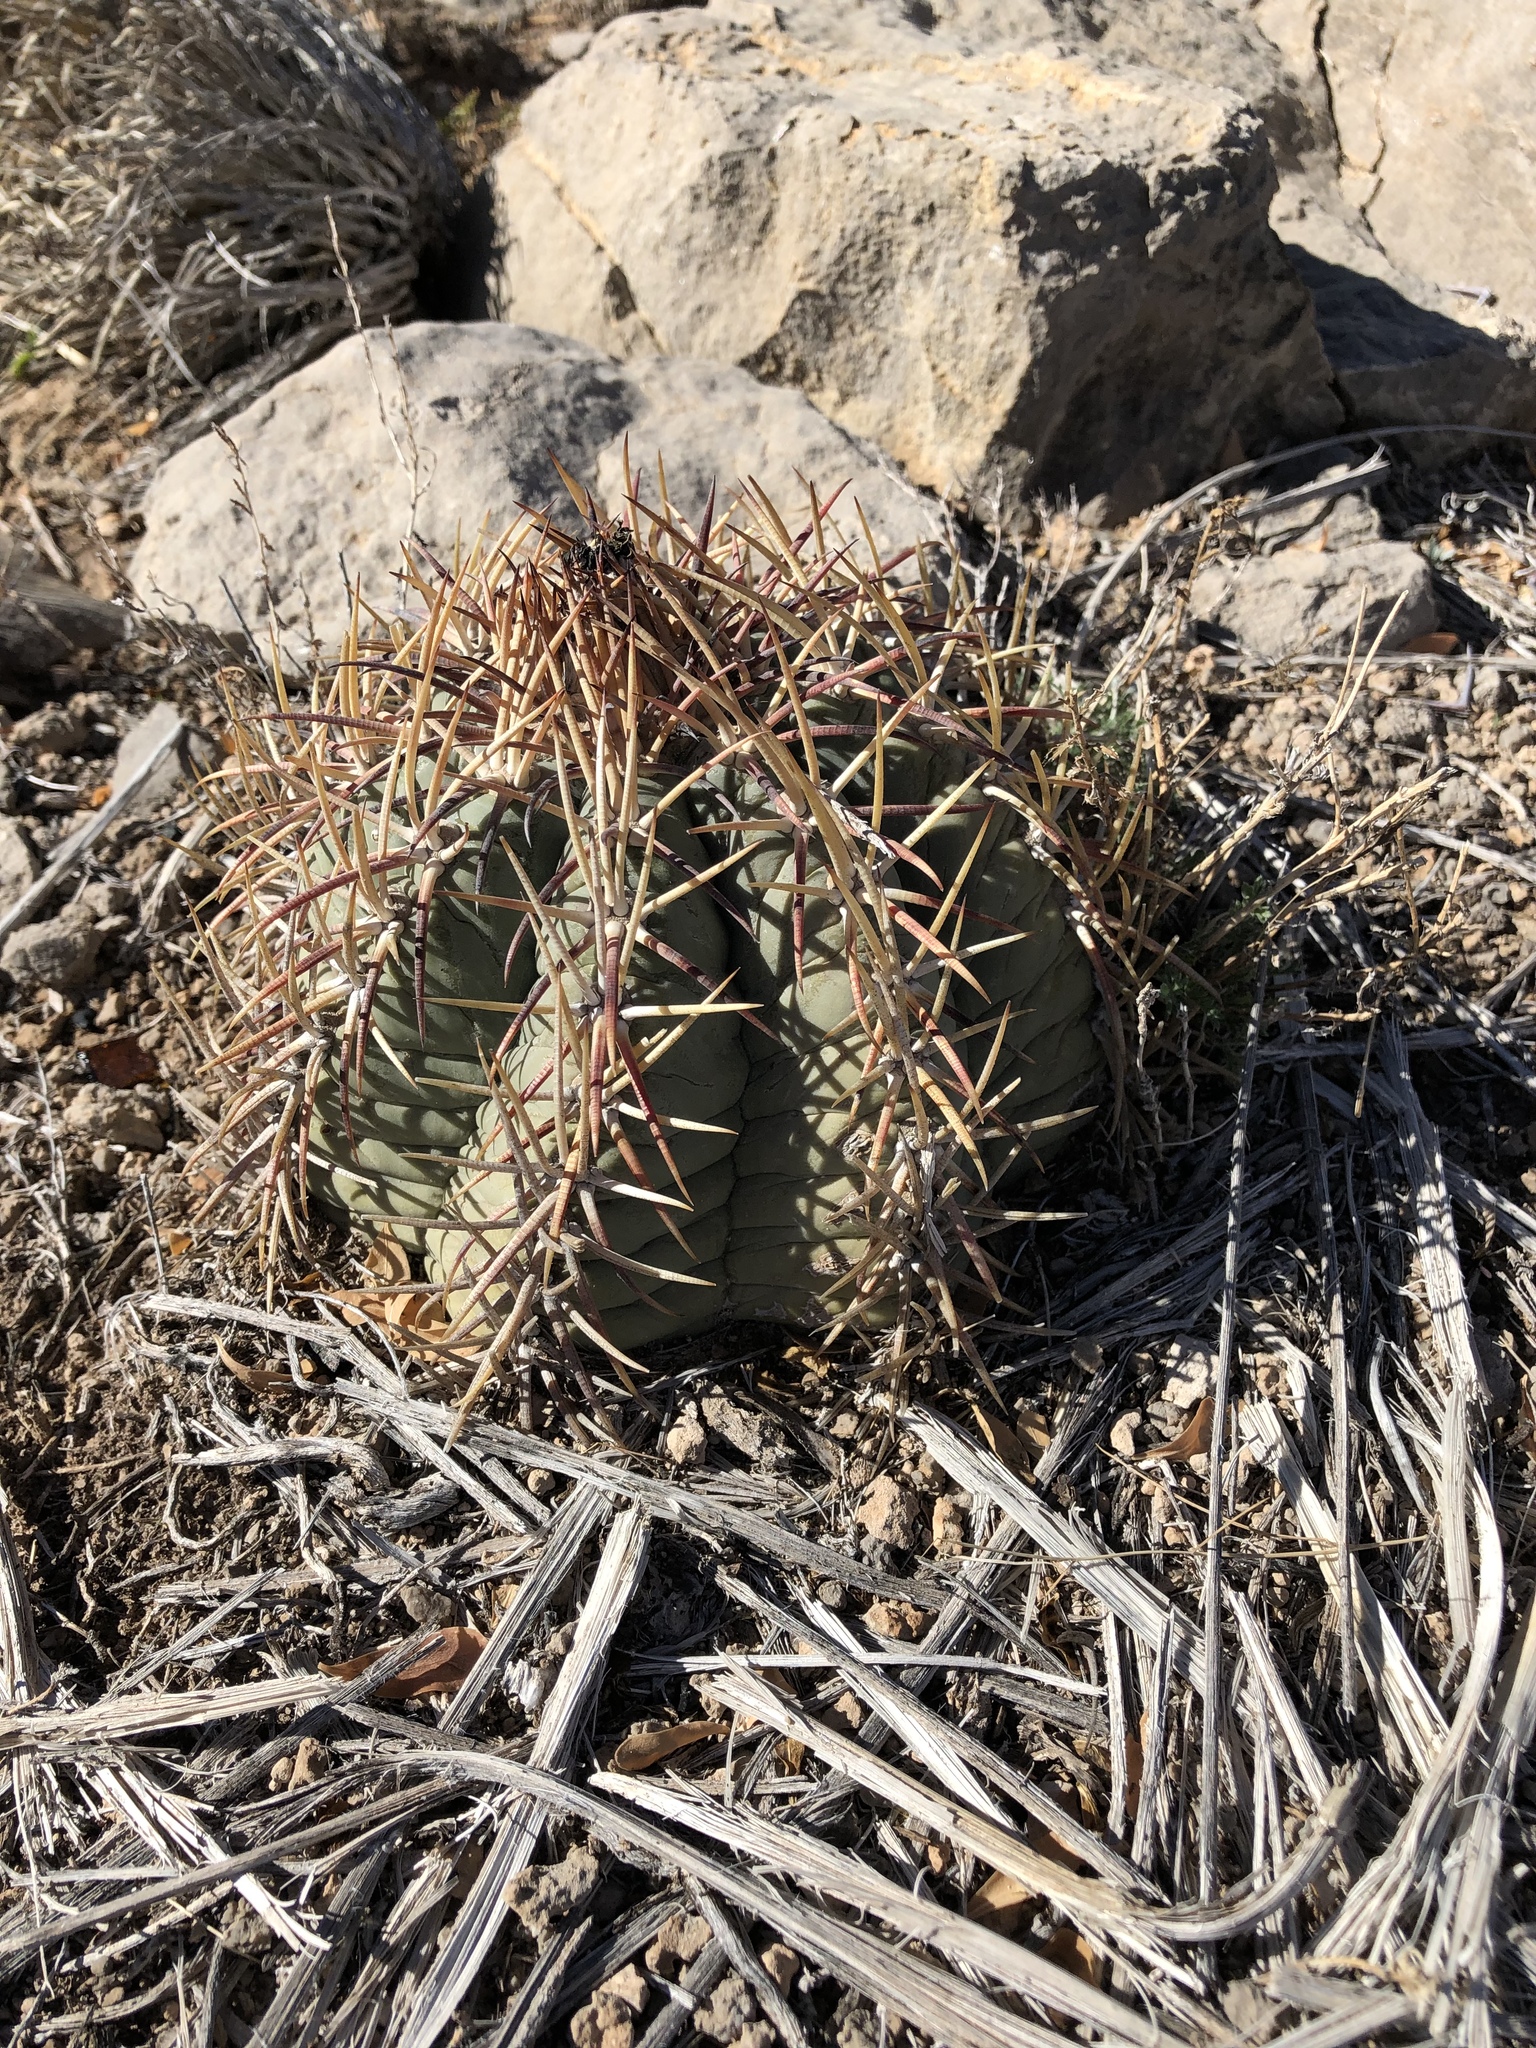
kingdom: Plantae
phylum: Tracheophyta
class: Magnoliopsida
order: Caryophyllales
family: Cactaceae
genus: Echinocactus
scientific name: Echinocactus horizonthalonius
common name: Devilshead
